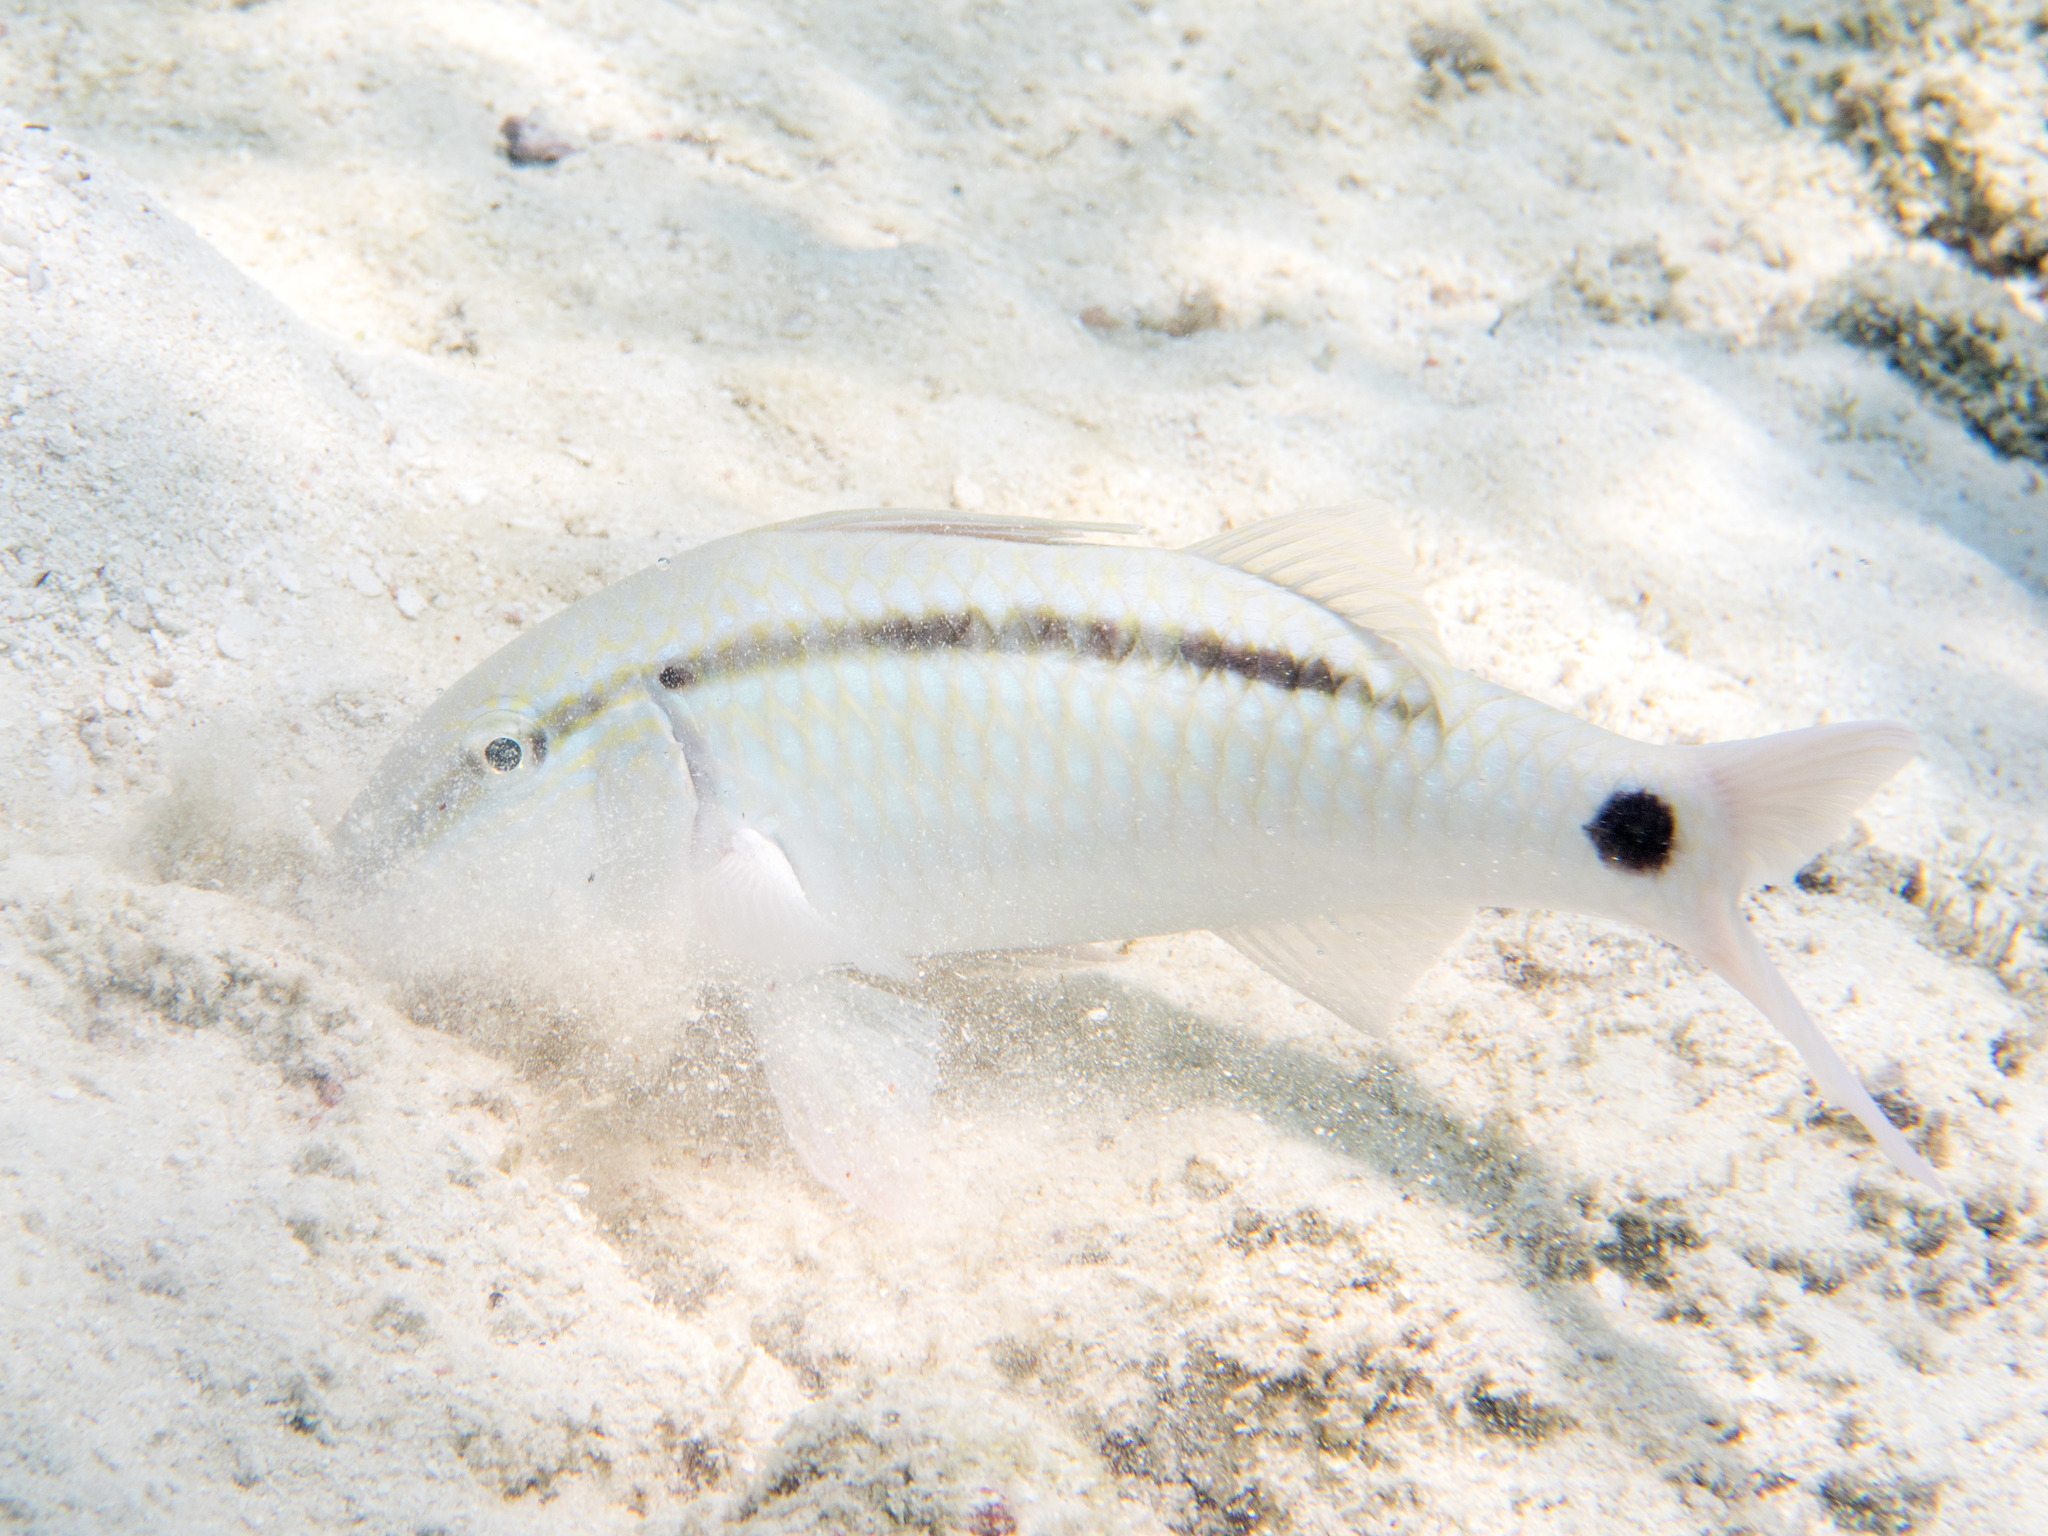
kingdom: Animalia
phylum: Chordata
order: Perciformes
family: Mullidae
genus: Parupeneus
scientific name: Parupeneus barberinus
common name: Dash-and-dot goatfish
